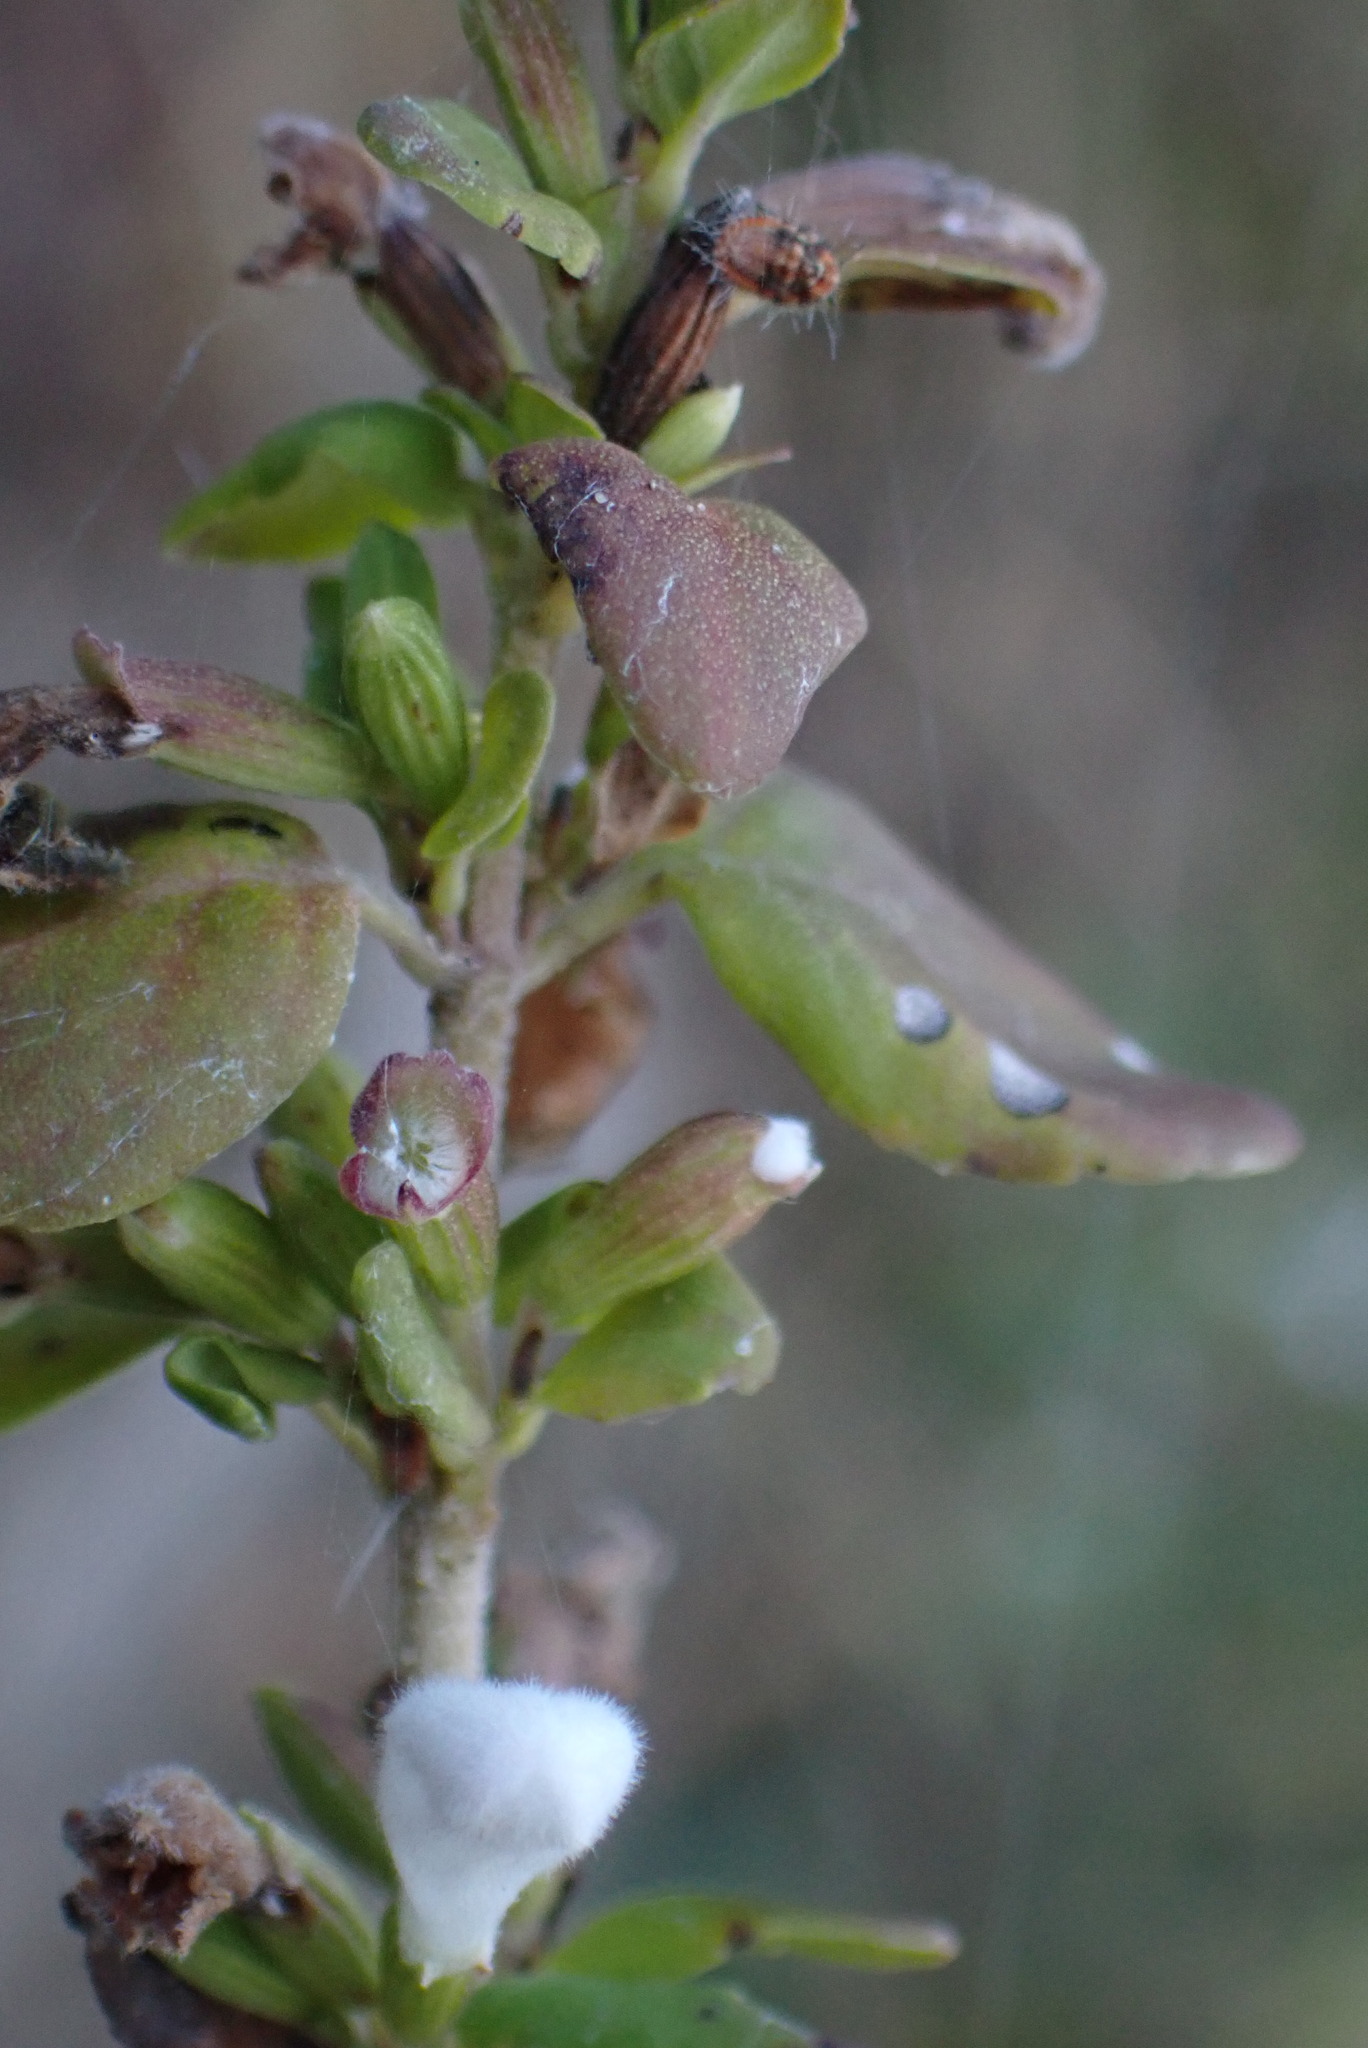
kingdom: Plantae
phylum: Tracheophyta
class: Magnoliopsida
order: Lamiales
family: Lamiaceae
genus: Clinopodium
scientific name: Clinopodium carolinianum
